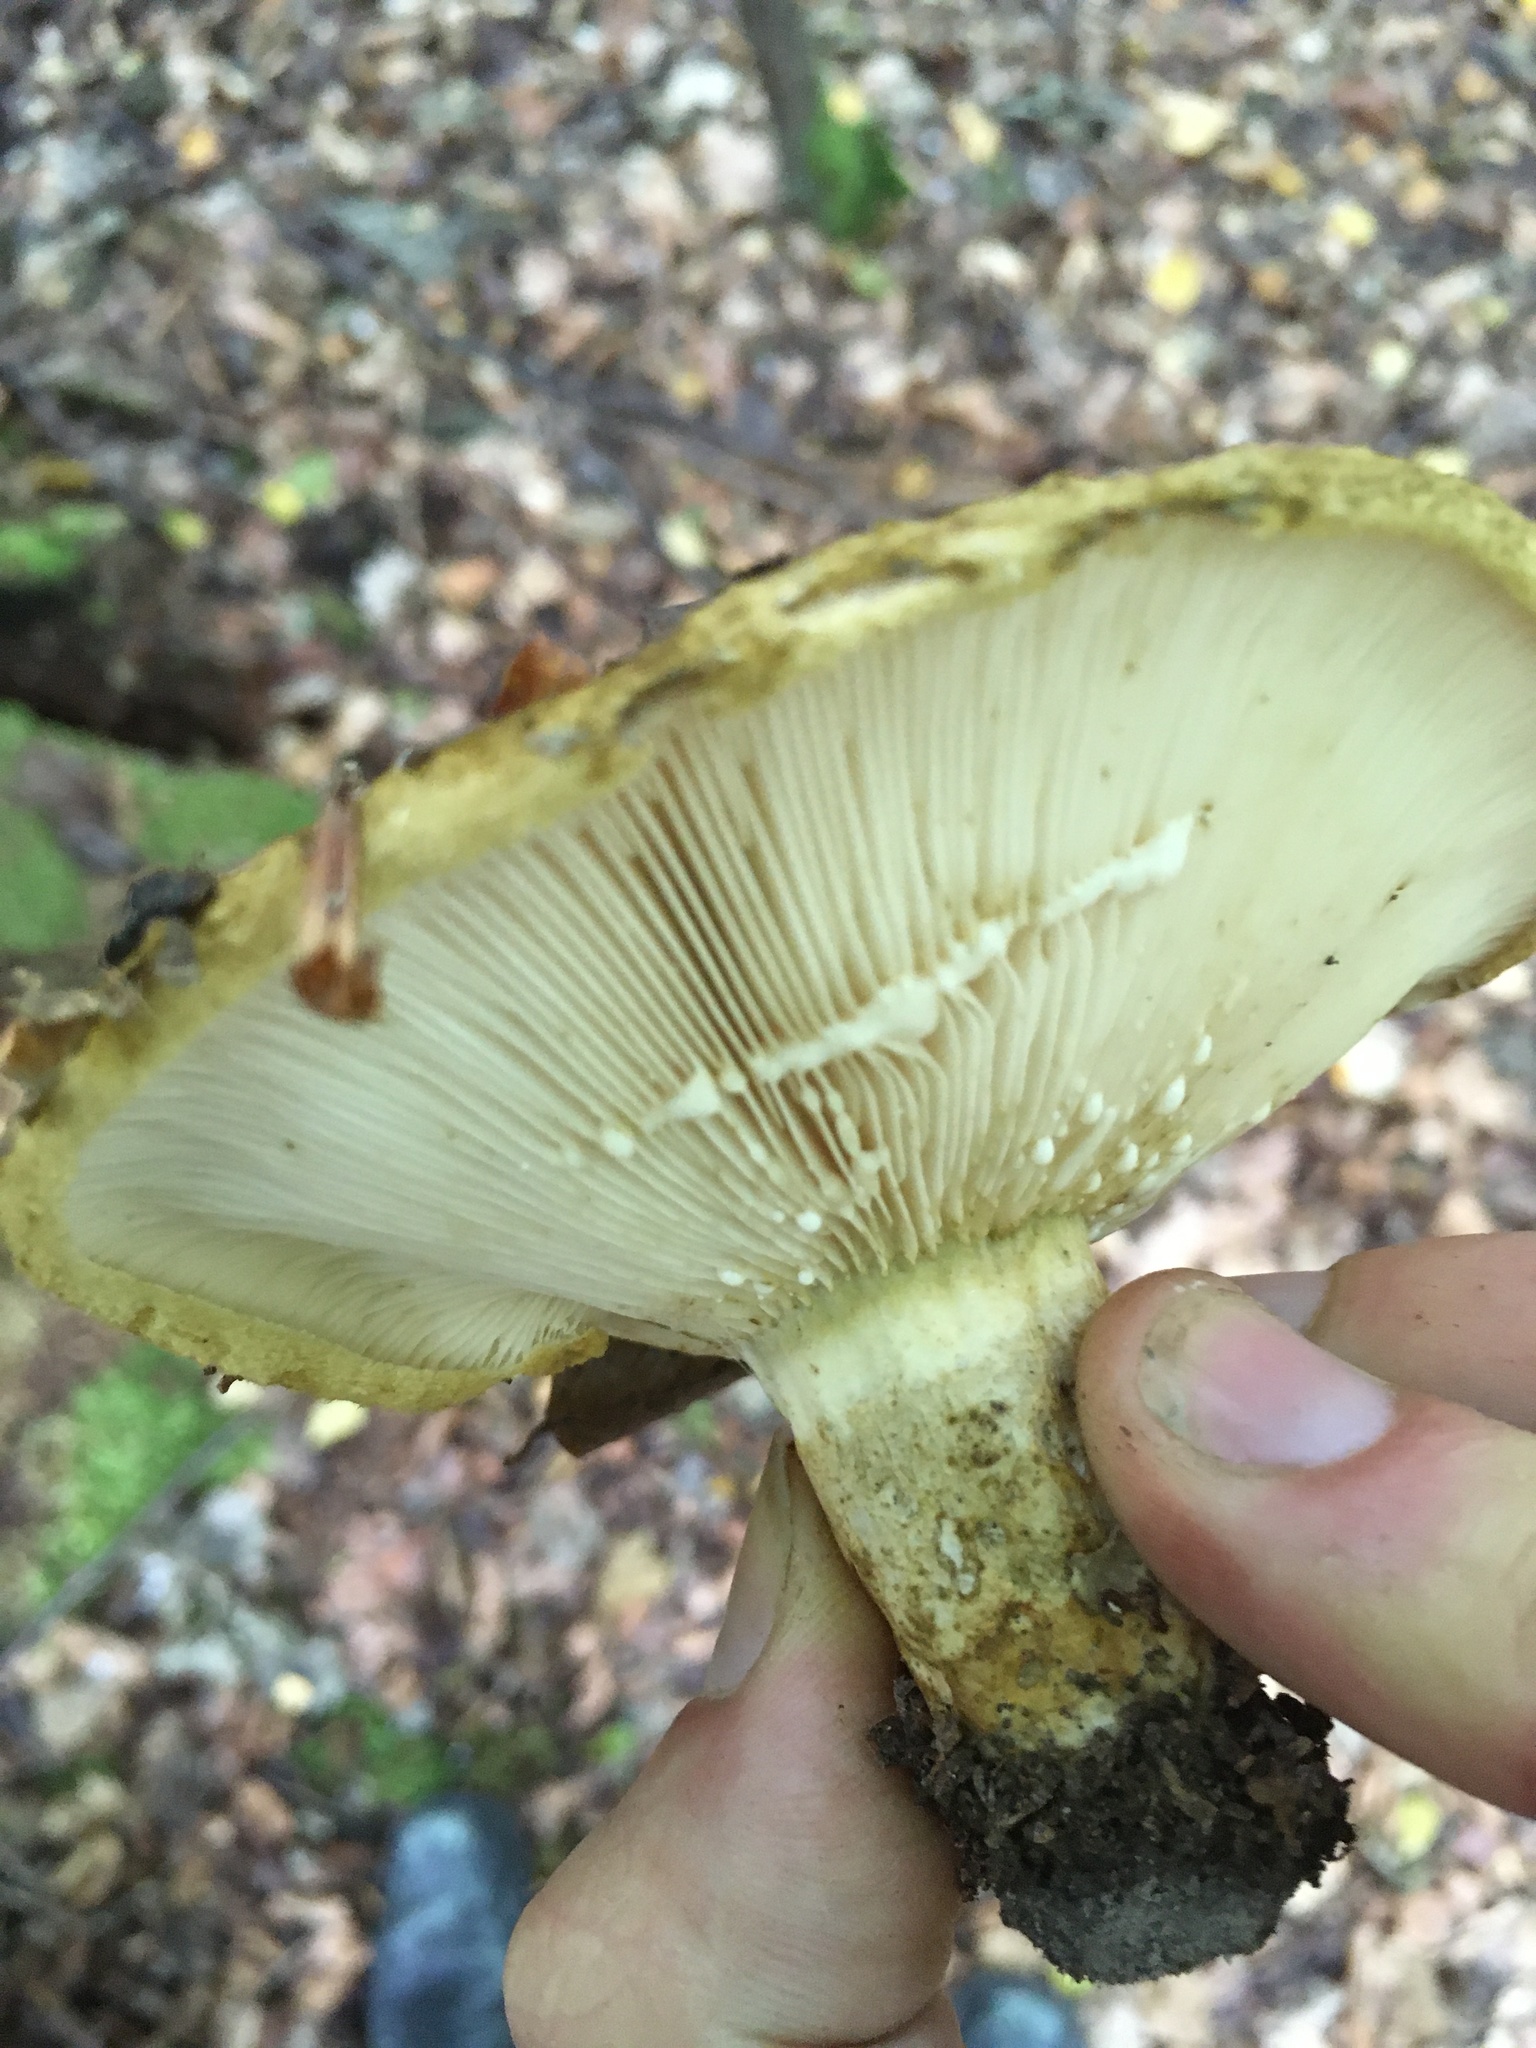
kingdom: Fungi
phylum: Basidiomycota
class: Agaricomycetes
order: Russulales
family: Russulaceae
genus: Lactarius
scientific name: Lactarius turpis
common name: Ugly milk-cap
